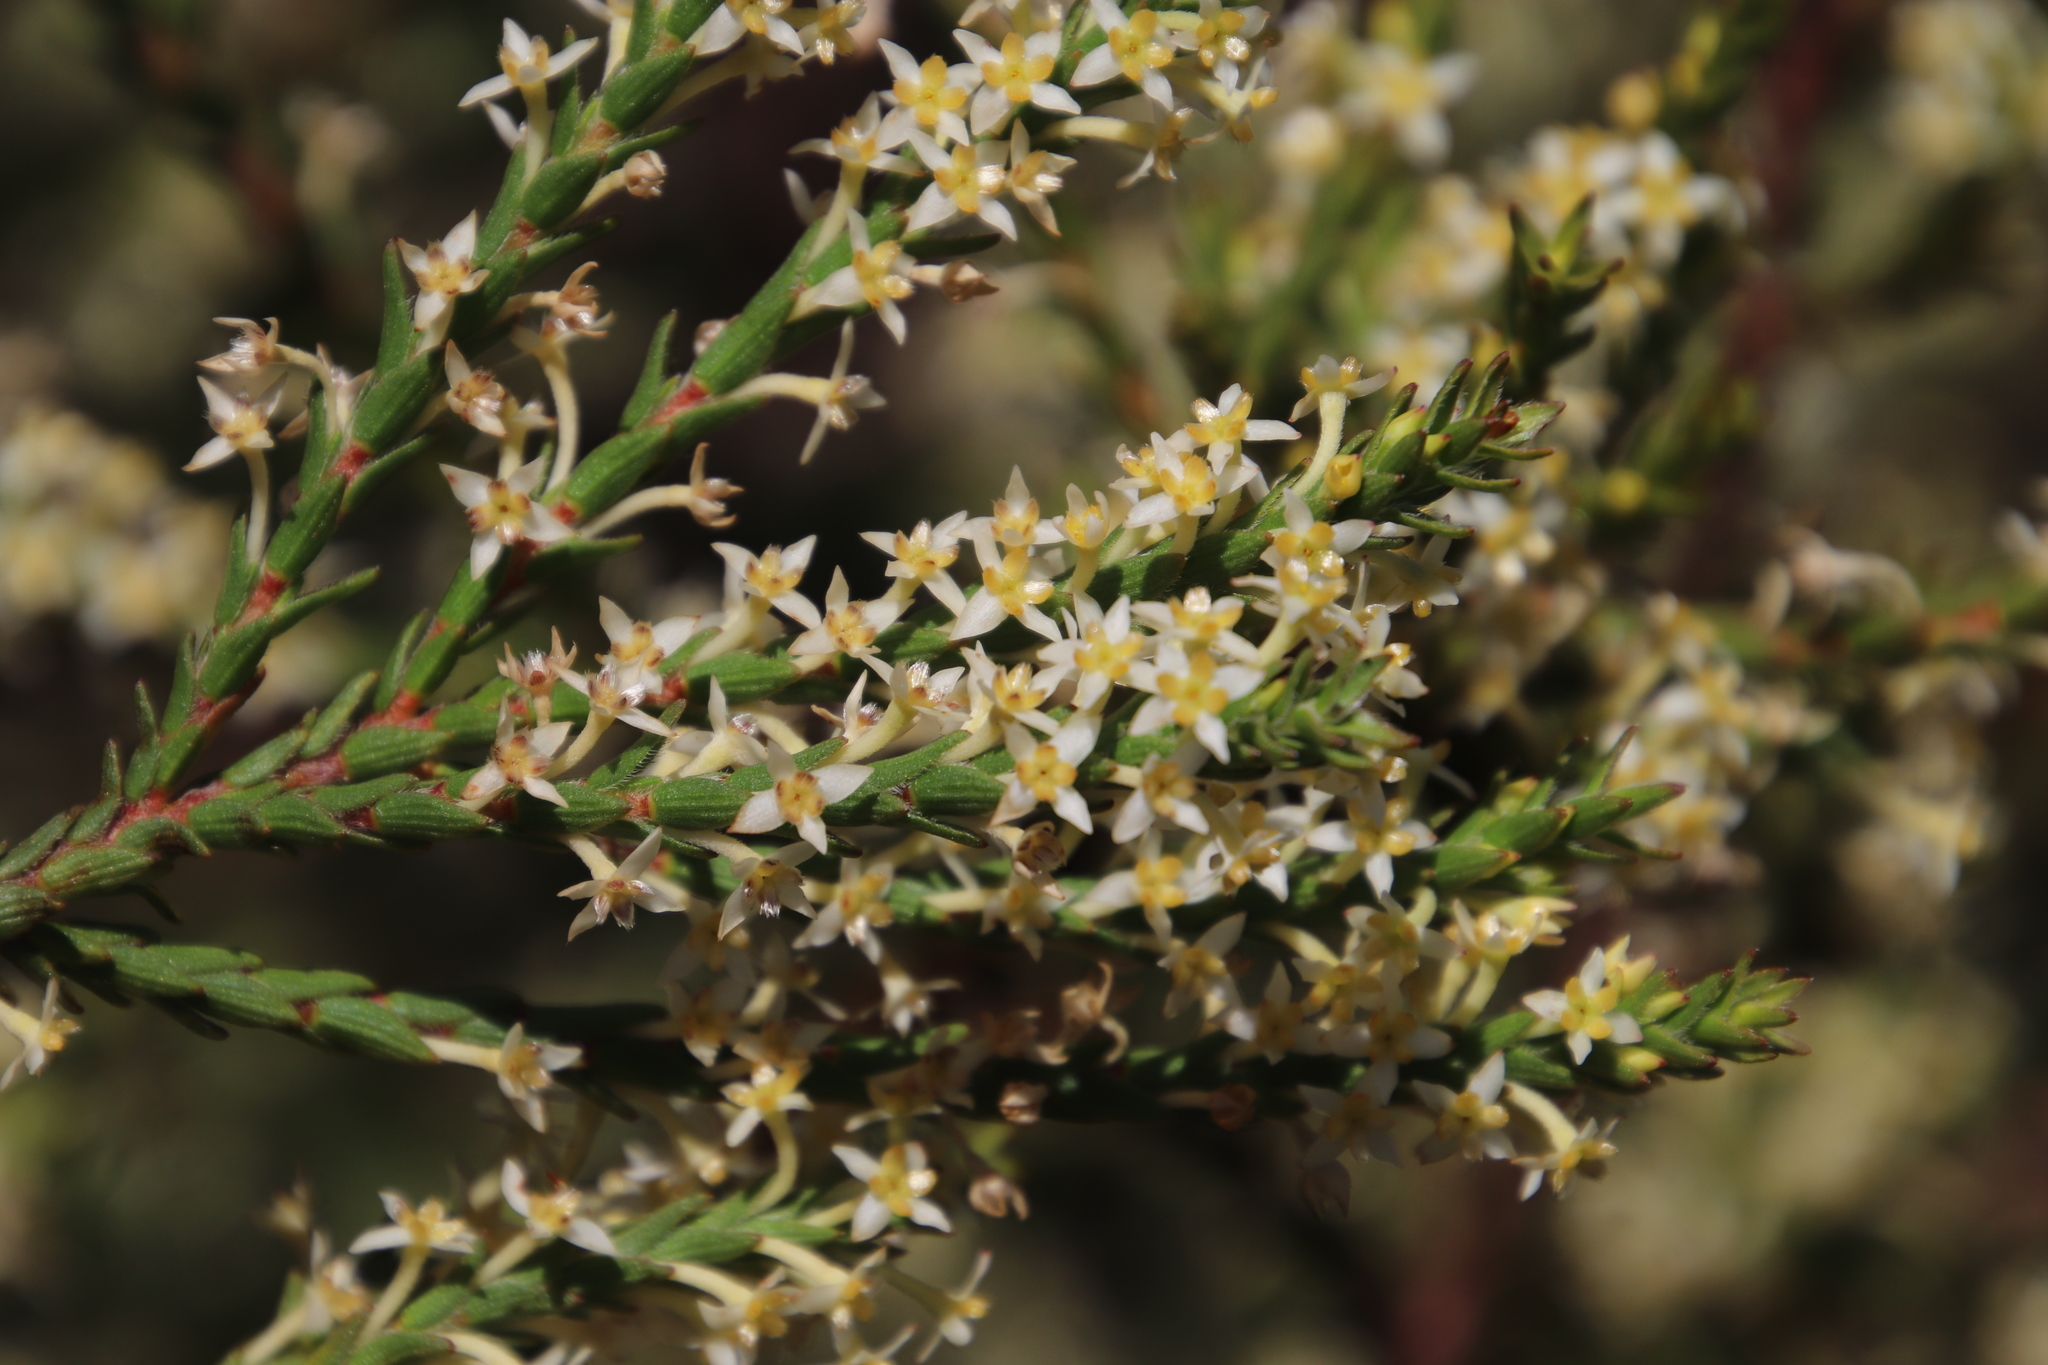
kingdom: Plantae
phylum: Tracheophyta
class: Magnoliopsida
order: Malvales
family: Thymelaeaceae
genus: Struthiola
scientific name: Struthiola striata
